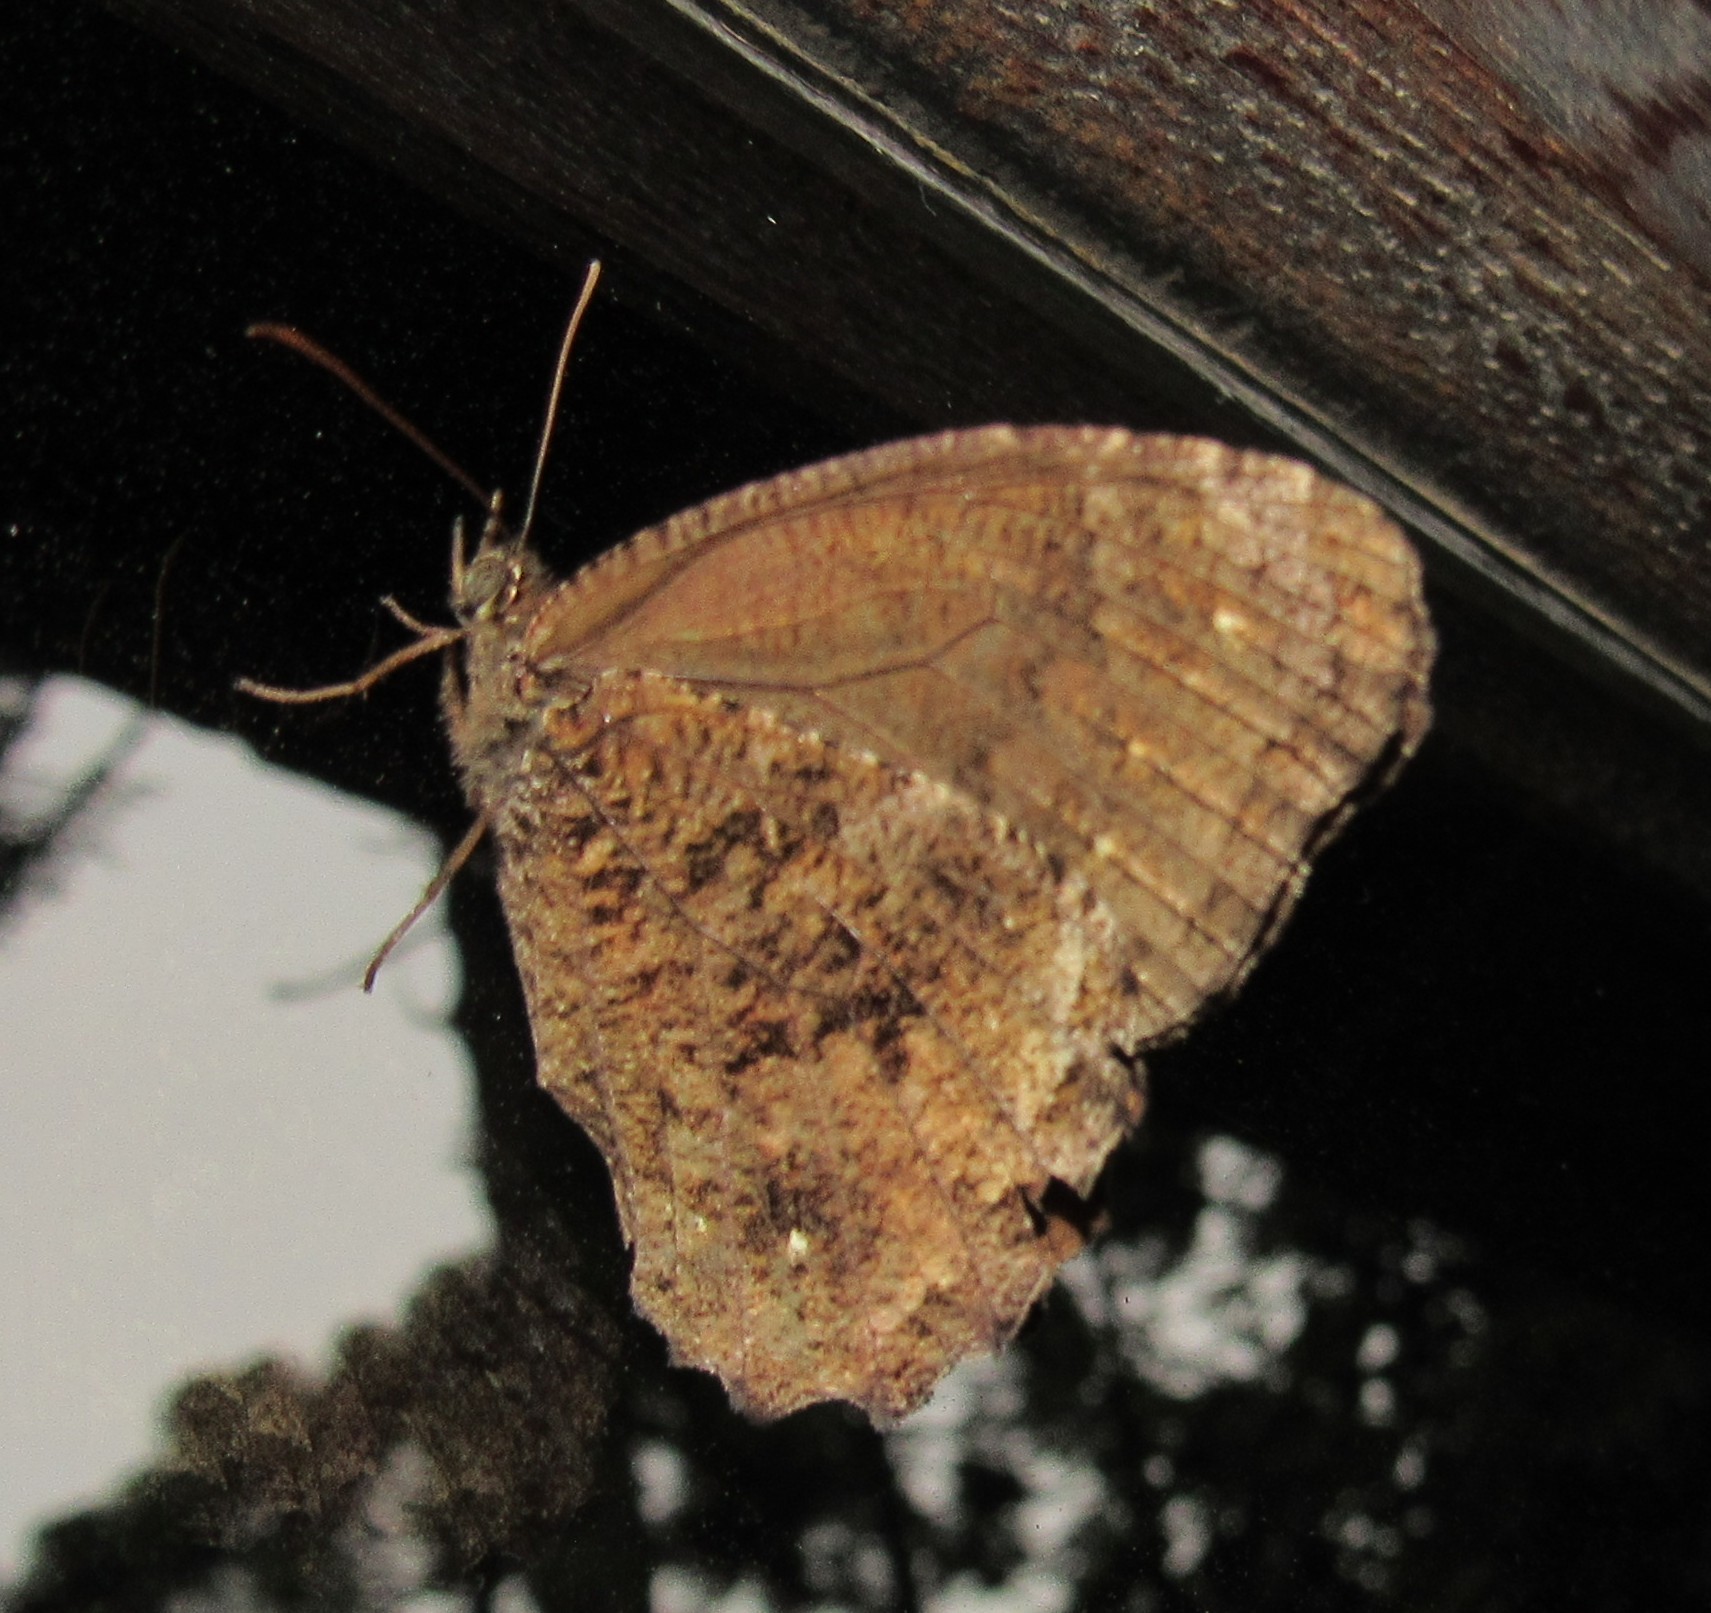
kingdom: Animalia
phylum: Arthropoda
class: Insecta
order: Lepidoptera
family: Nymphalidae
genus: Praepedaliodes
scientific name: Praepedaliodes phanias
